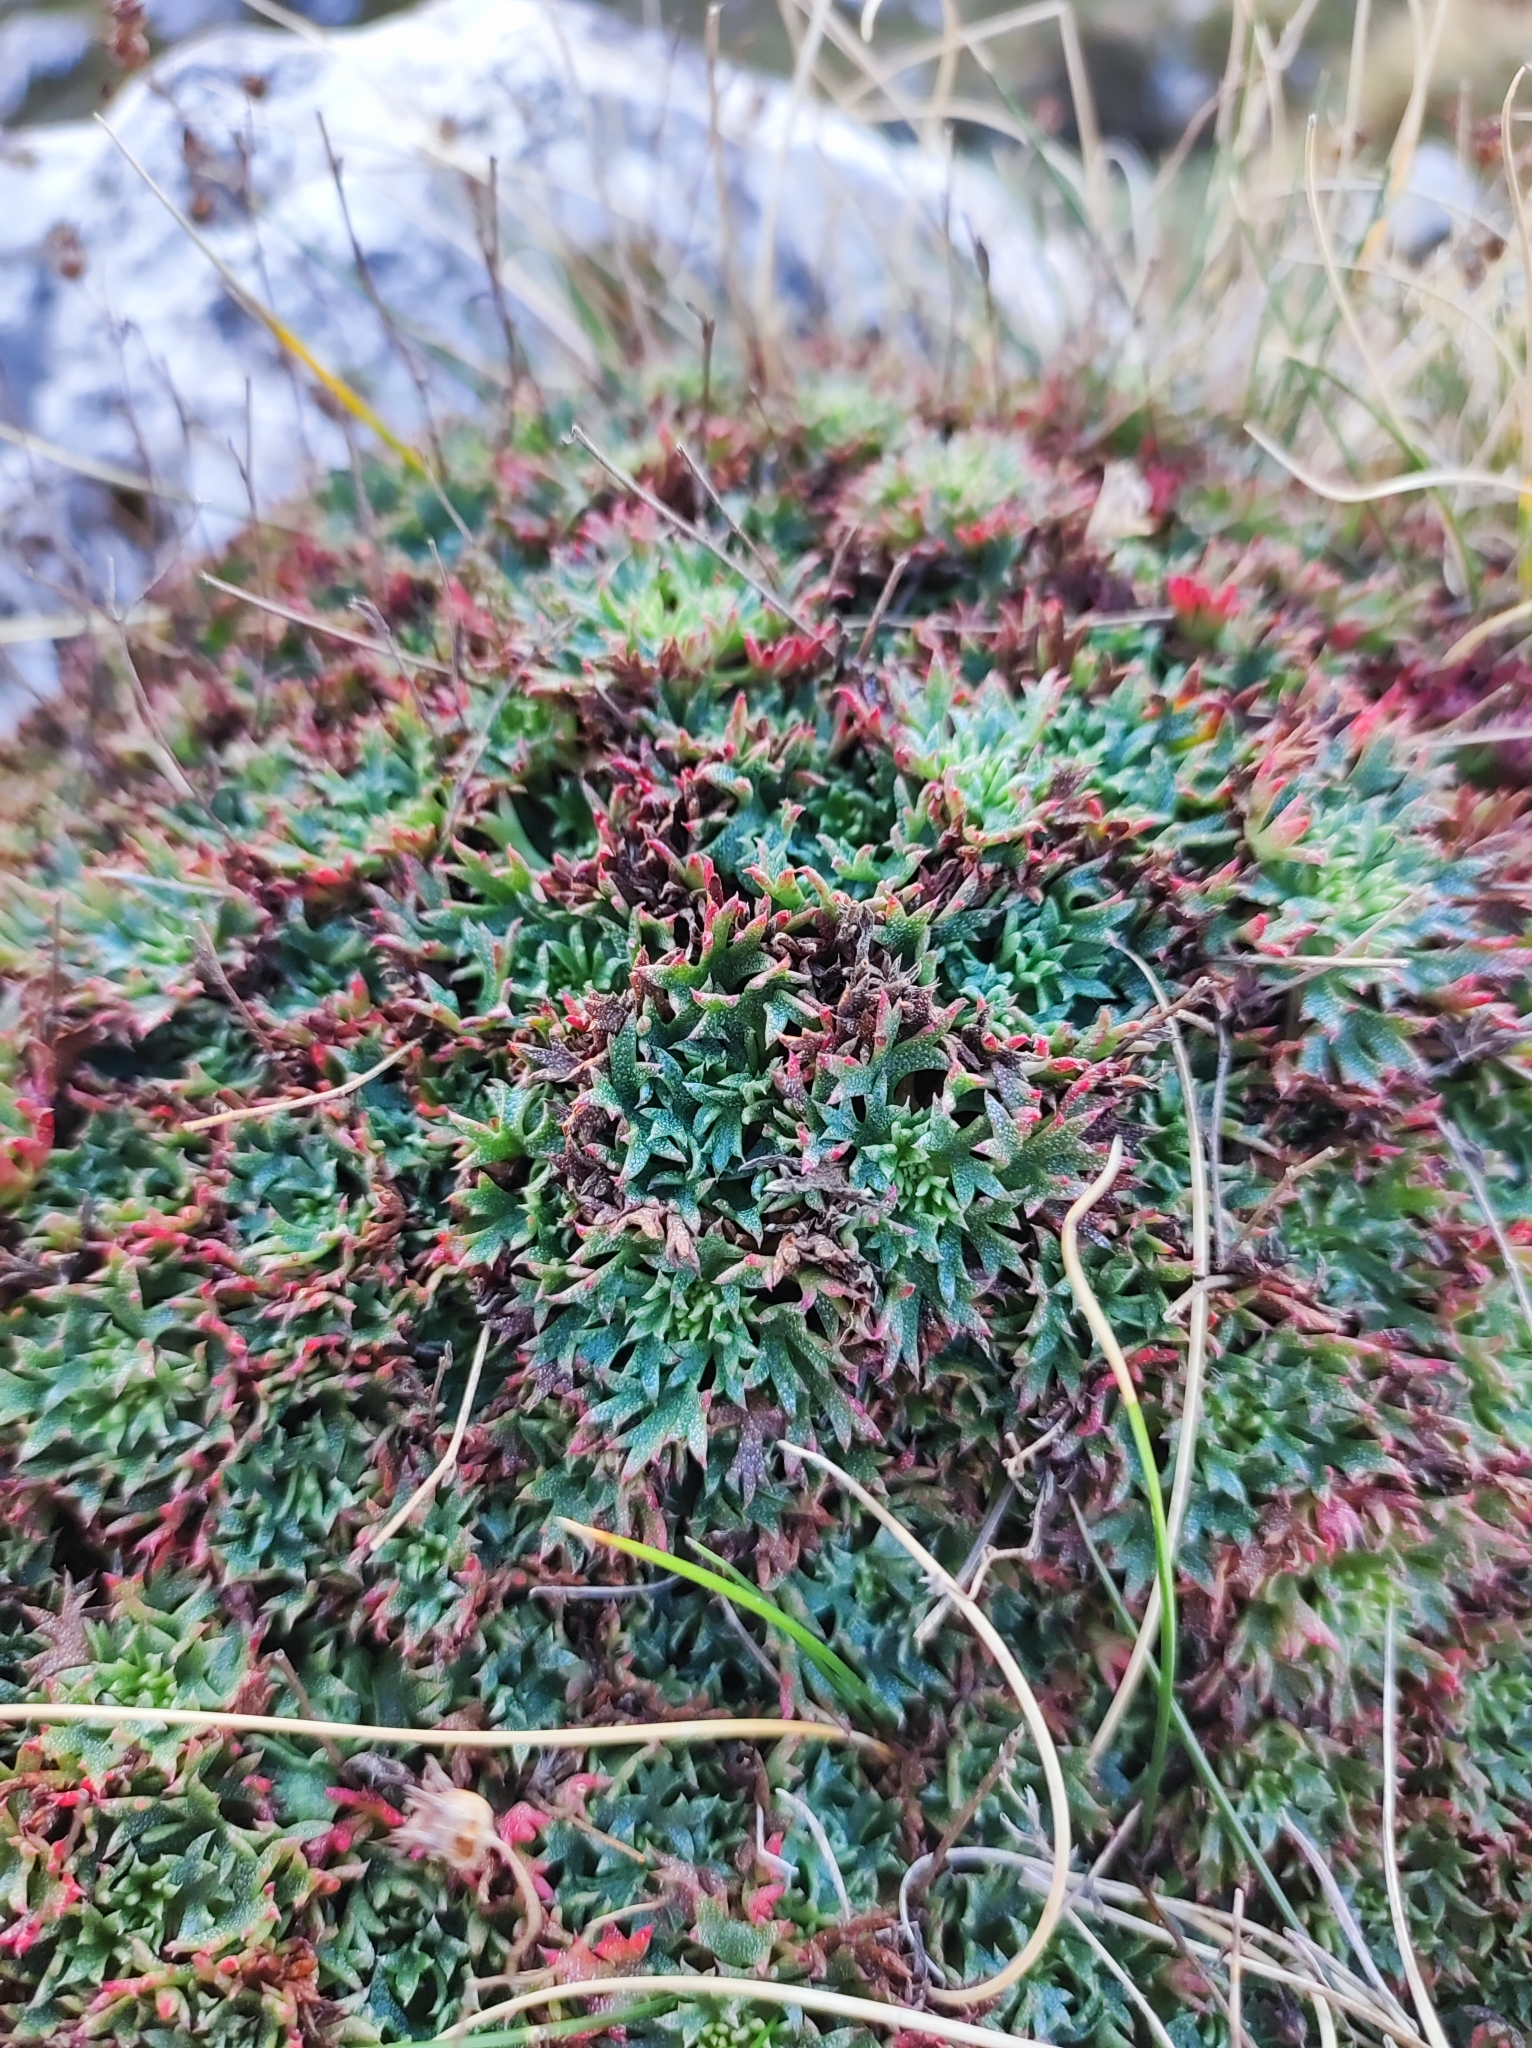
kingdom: Plantae
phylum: Tracheophyta
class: Magnoliopsida
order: Saxifragales
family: Saxifragaceae
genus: Saxifraga
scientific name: Saxifraga trifurcata
